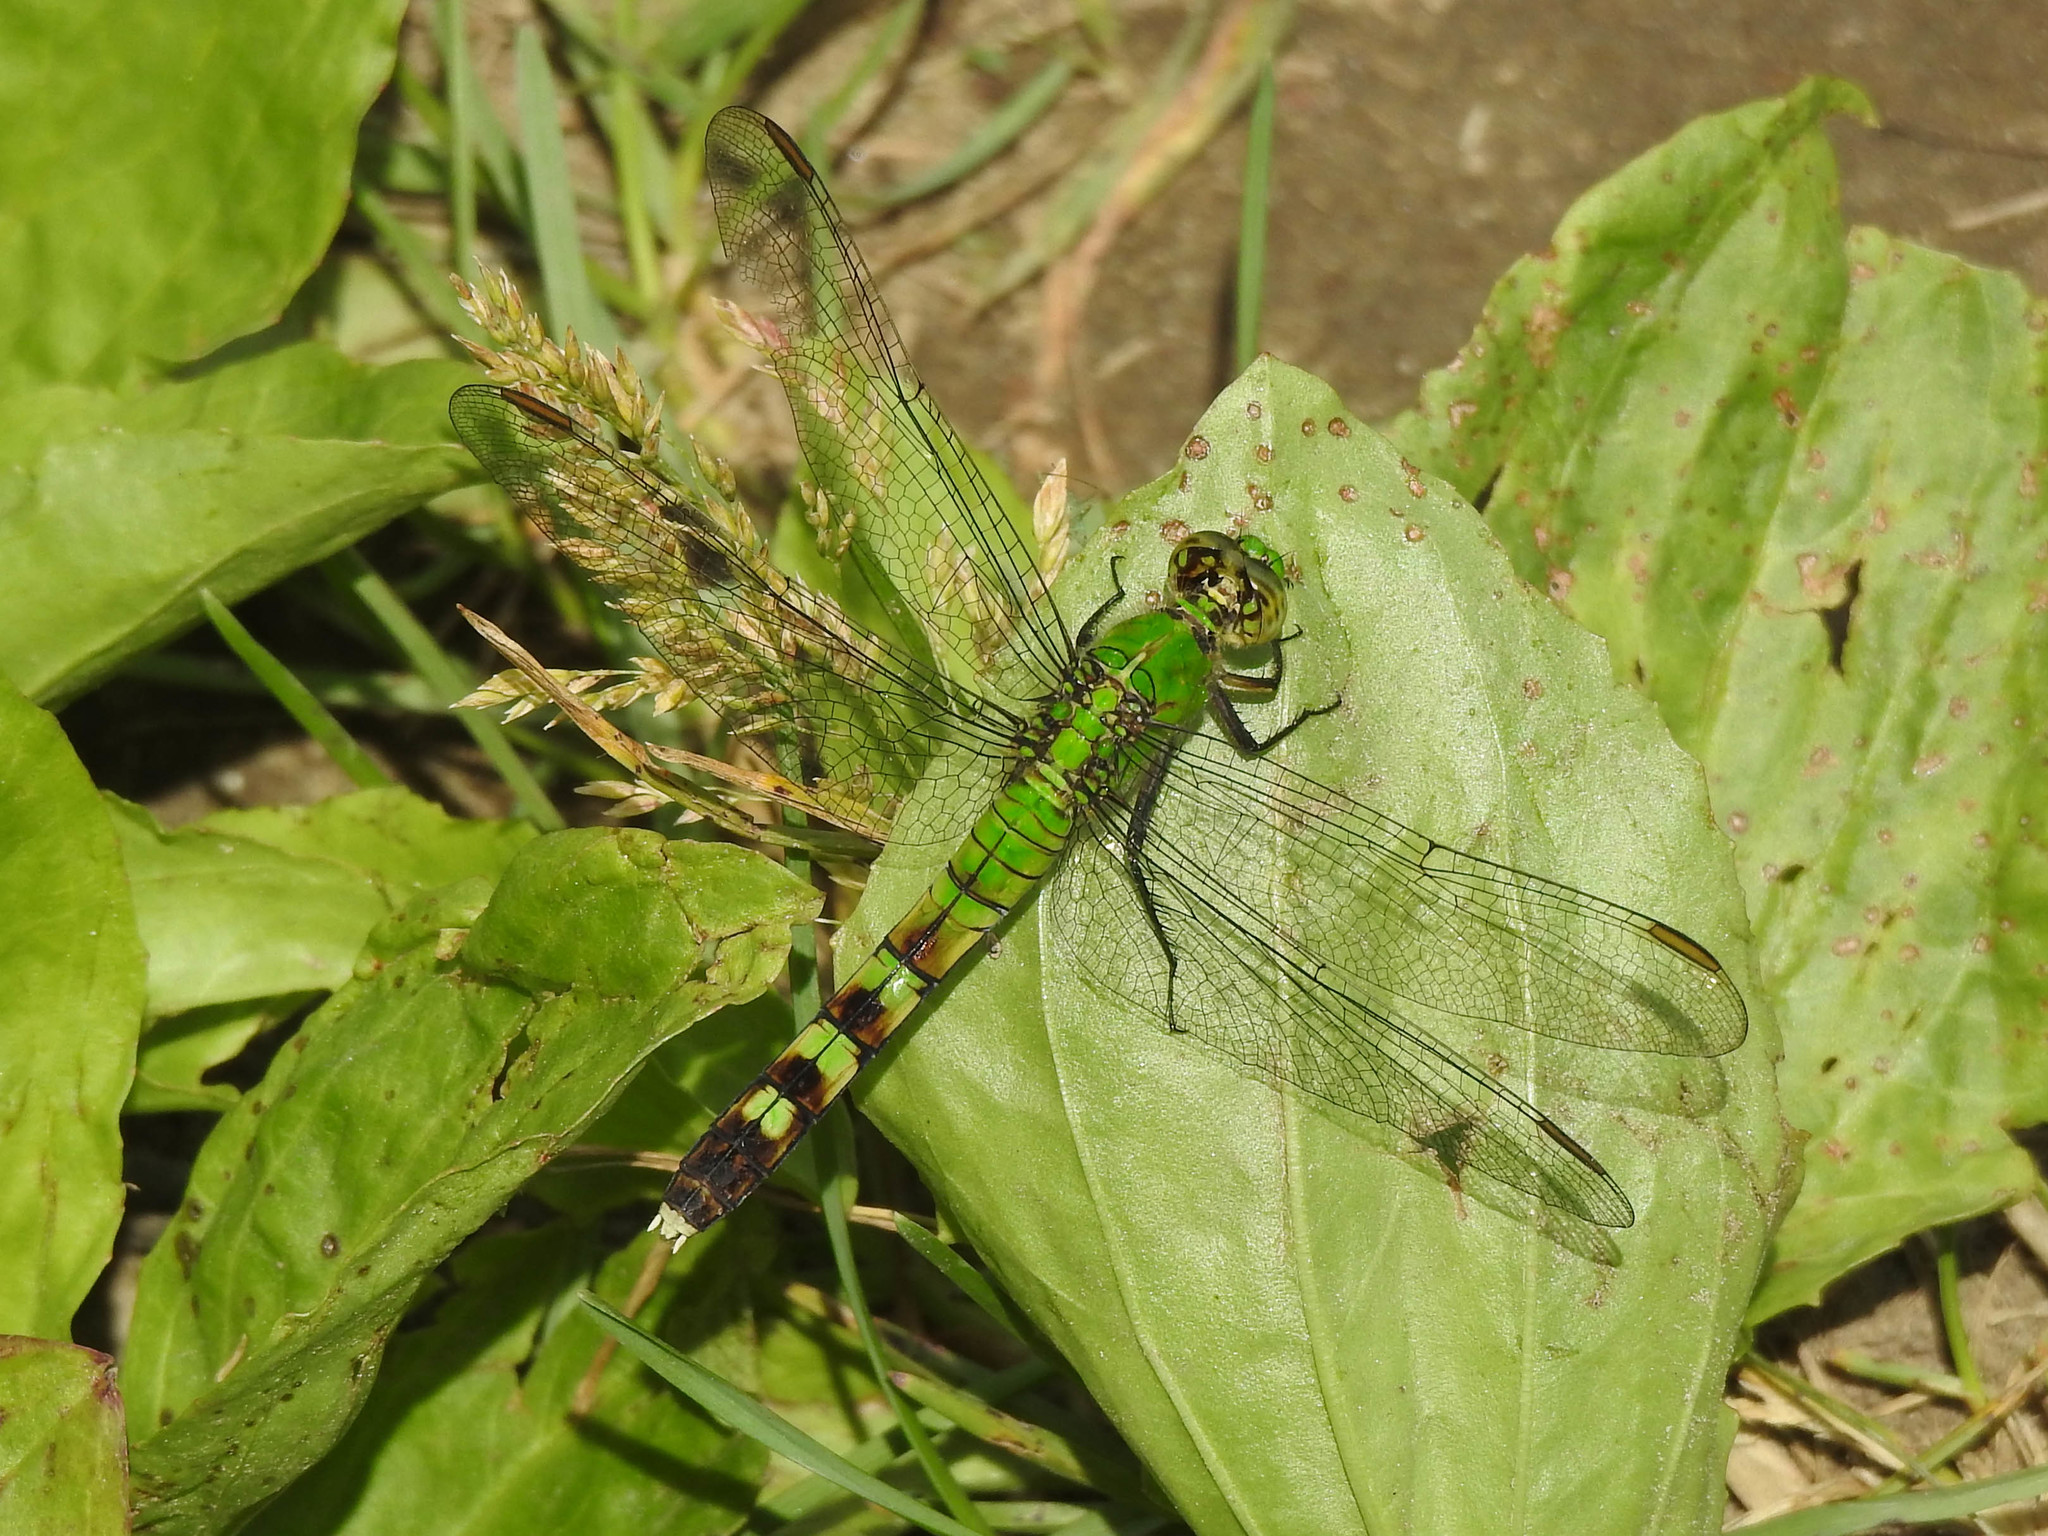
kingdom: Animalia
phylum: Arthropoda
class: Insecta
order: Odonata
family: Libellulidae
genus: Erythemis
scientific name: Erythemis simplicicollis
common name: Eastern pondhawk
